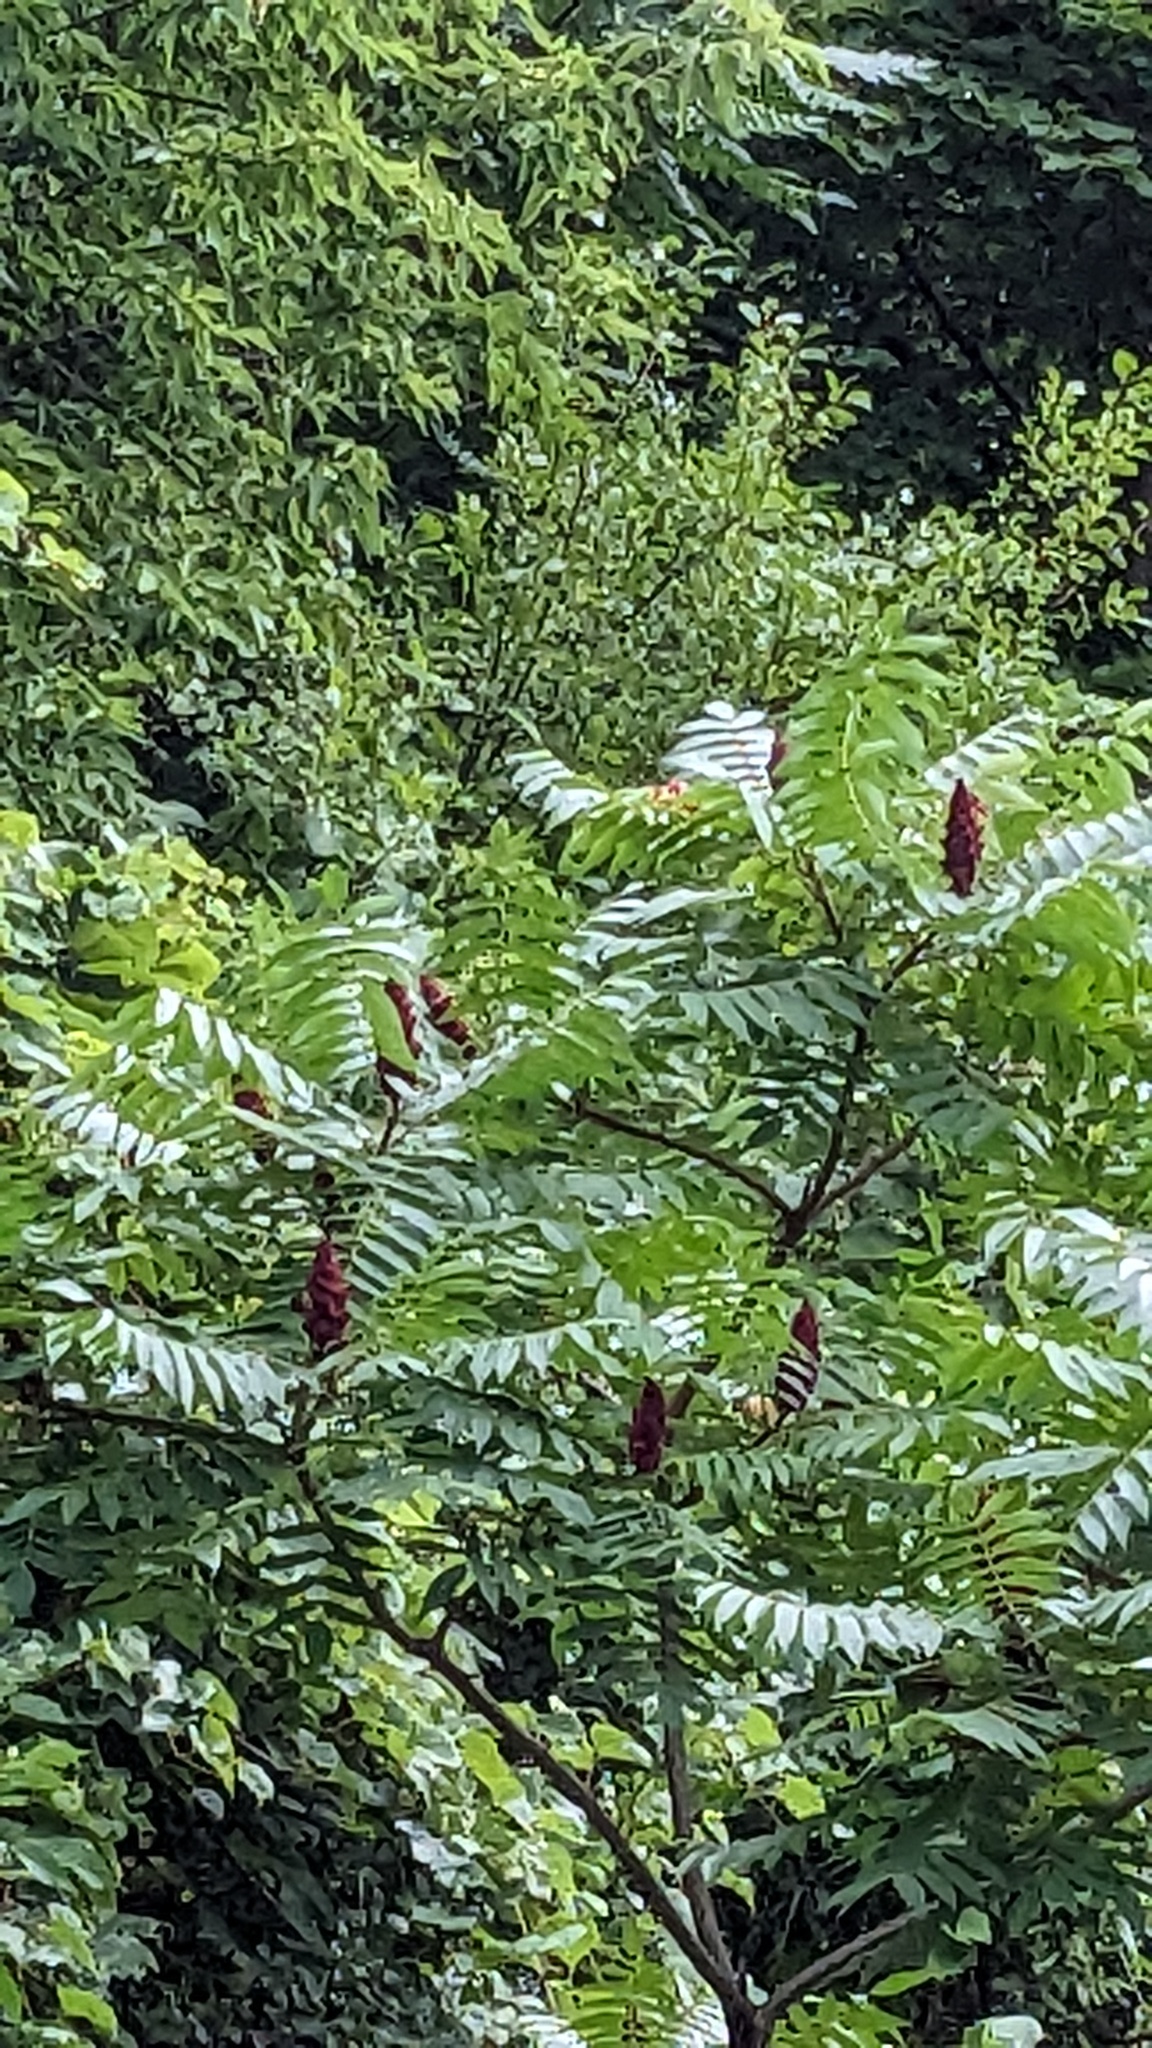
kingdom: Plantae
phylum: Tracheophyta
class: Magnoliopsida
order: Sapindales
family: Anacardiaceae
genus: Rhus
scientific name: Rhus typhina
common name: Staghorn sumac
